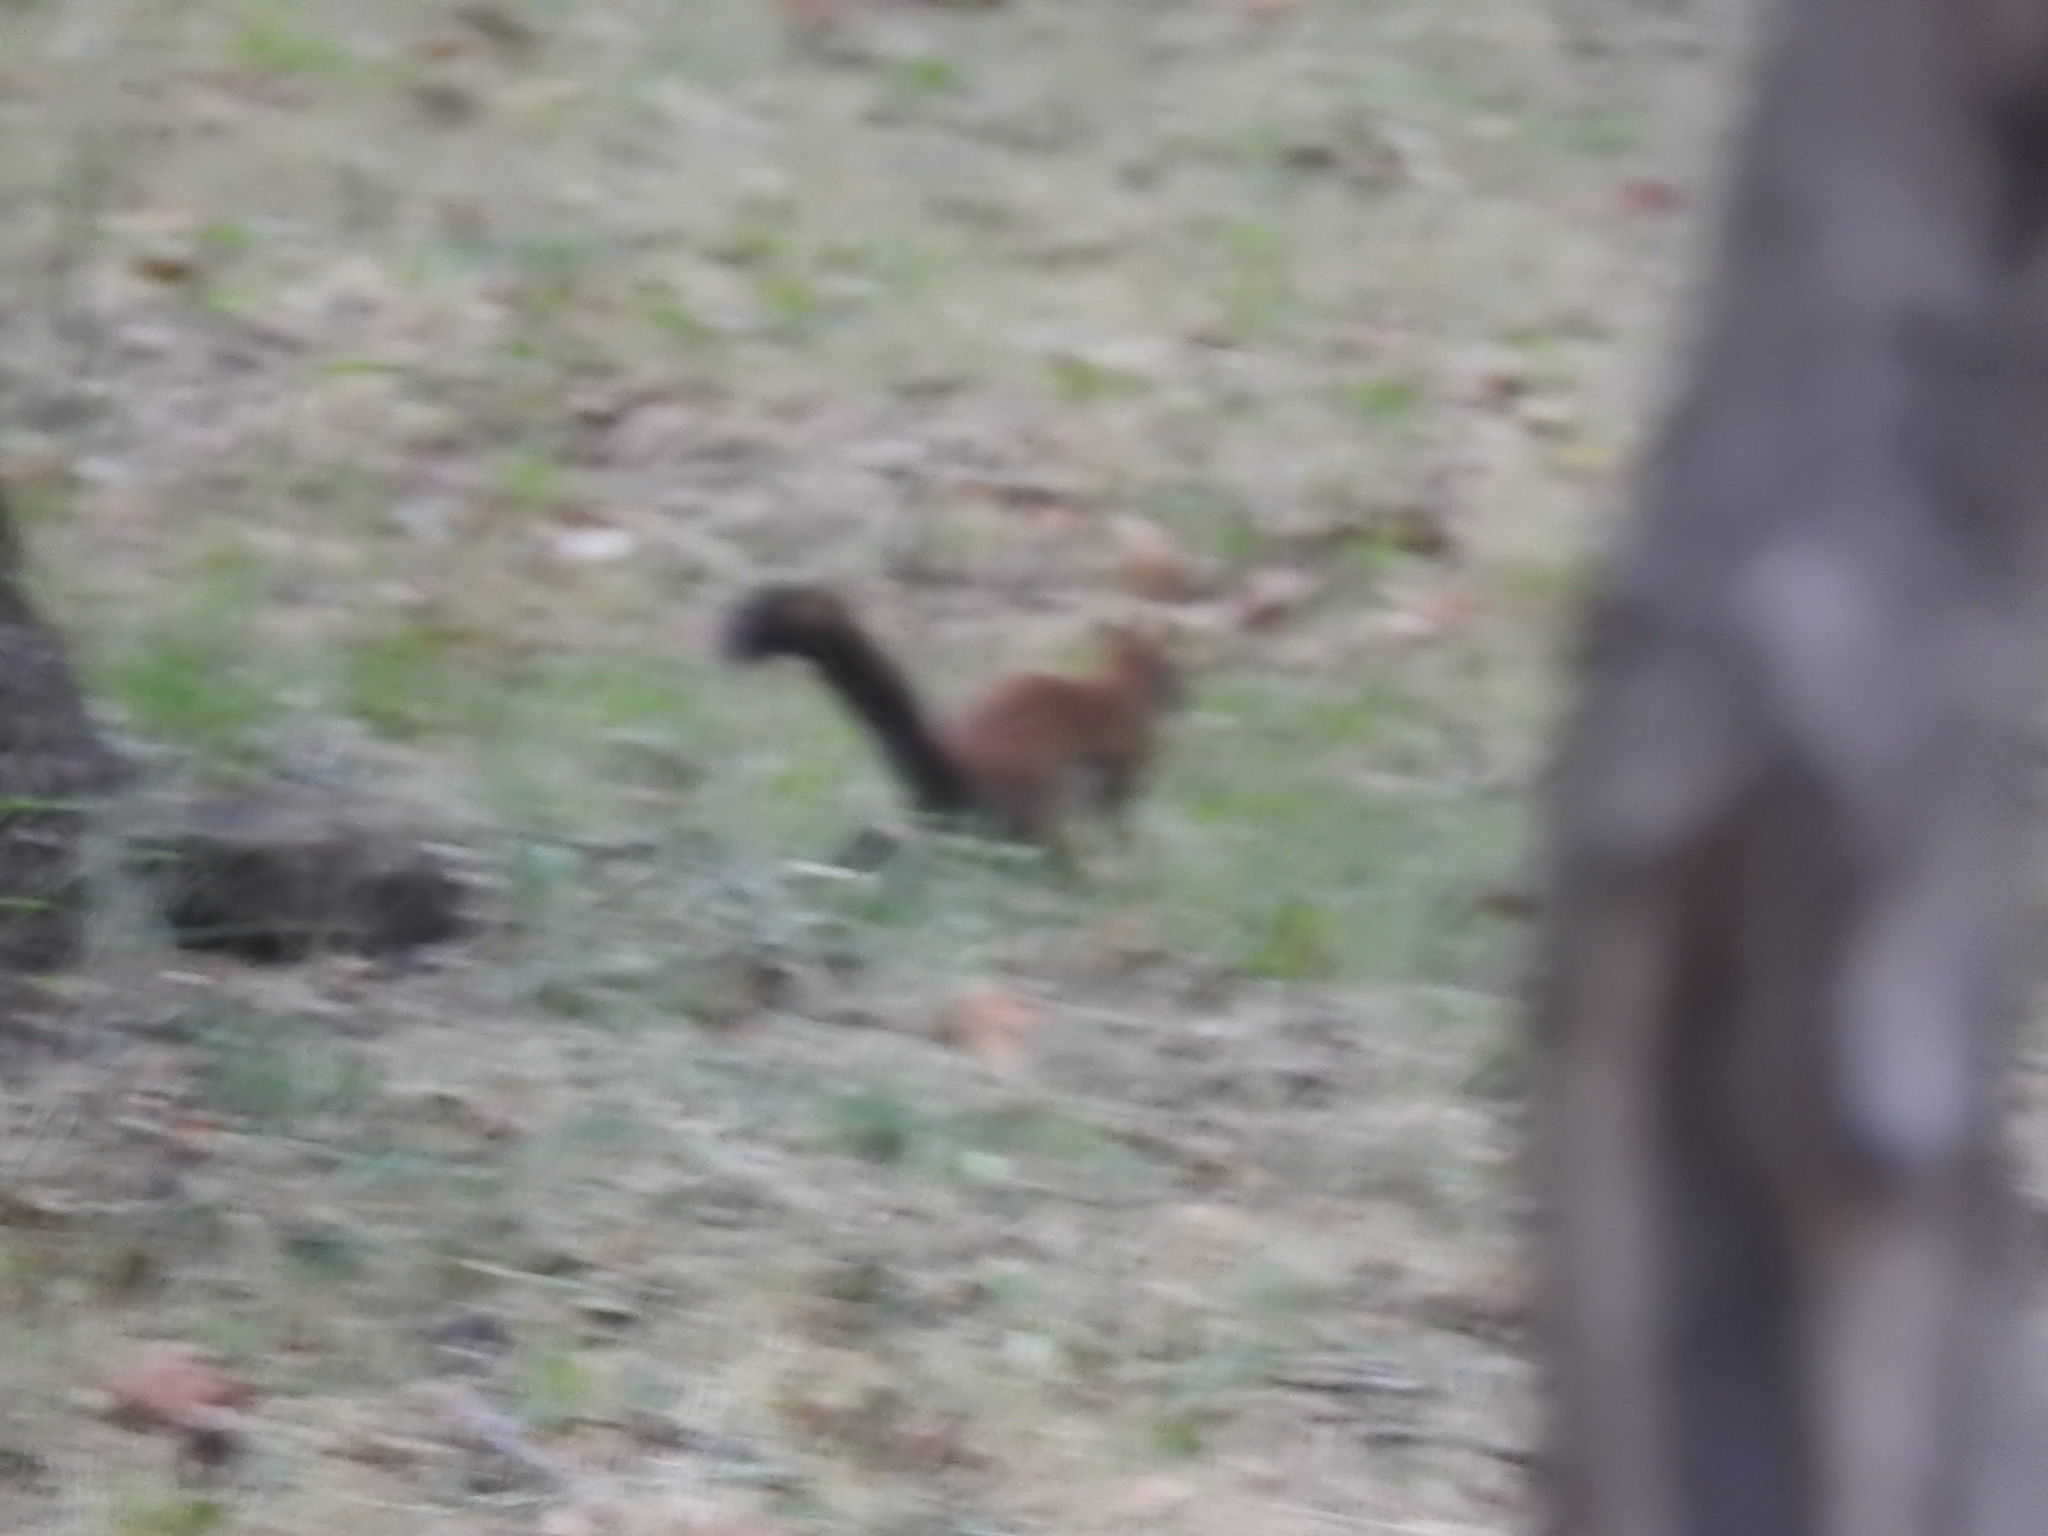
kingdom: Animalia
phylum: Chordata
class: Mammalia
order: Rodentia
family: Sciuridae
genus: Tamiasciurus
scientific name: Tamiasciurus hudsonicus
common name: Red squirrel
